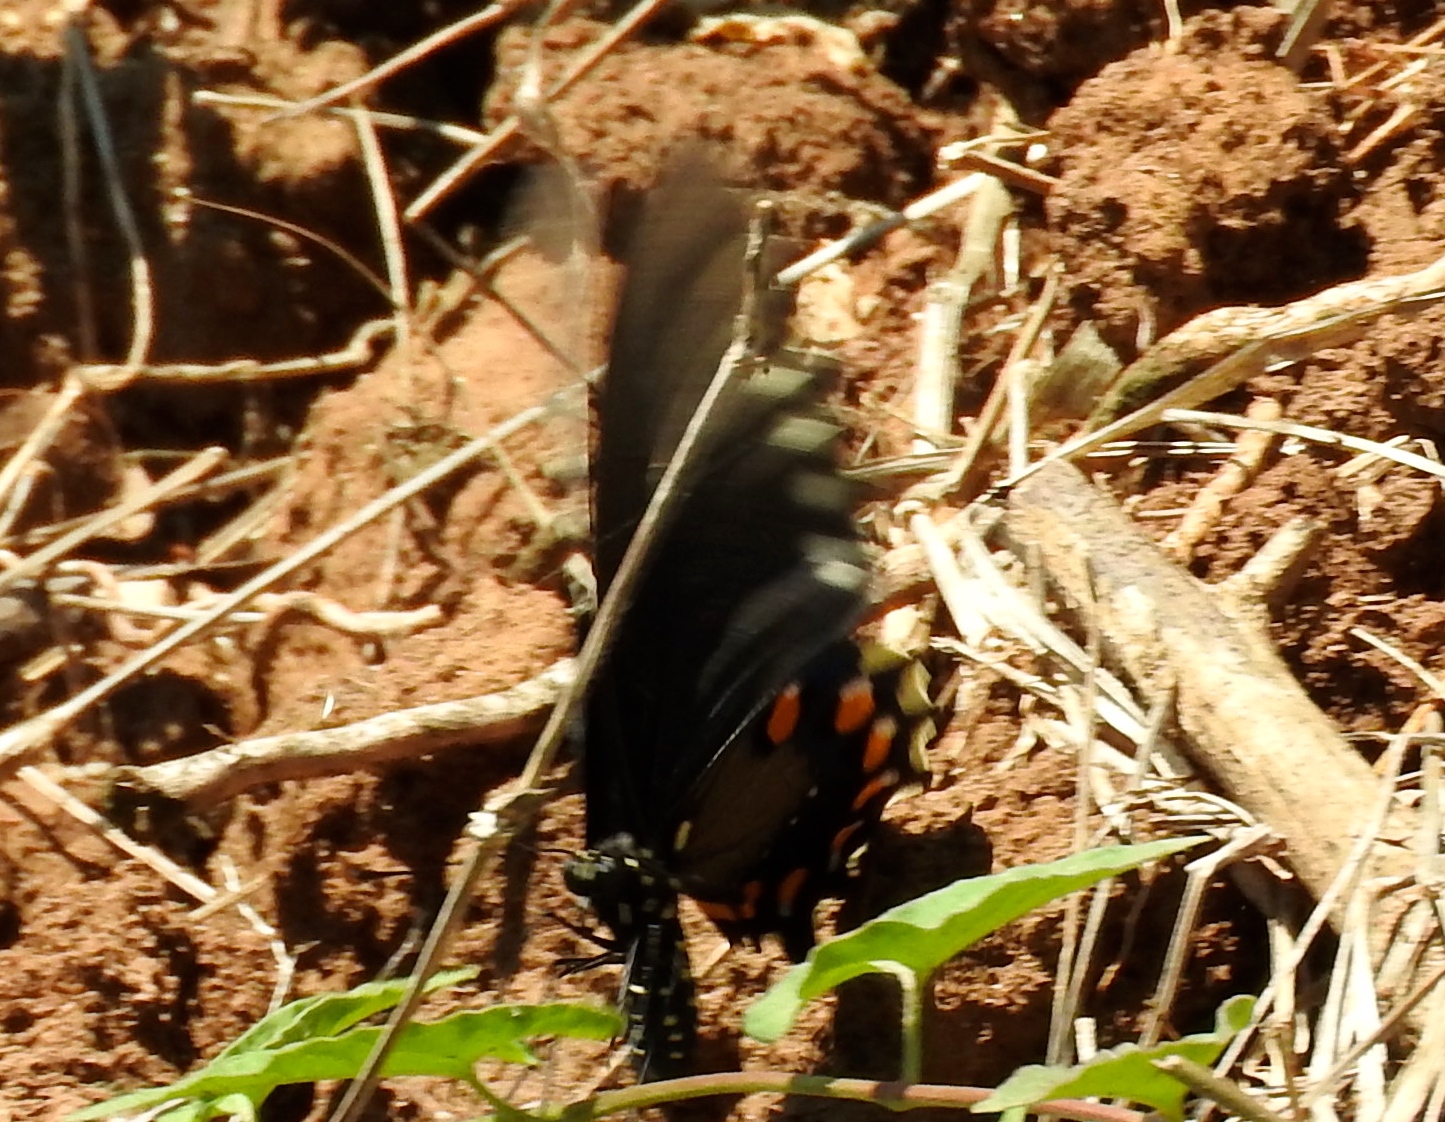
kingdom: Animalia
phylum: Arthropoda
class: Insecta
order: Lepidoptera
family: Papilionidae
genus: Battus
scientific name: Battus philenor
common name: Pipevine swallowtail
